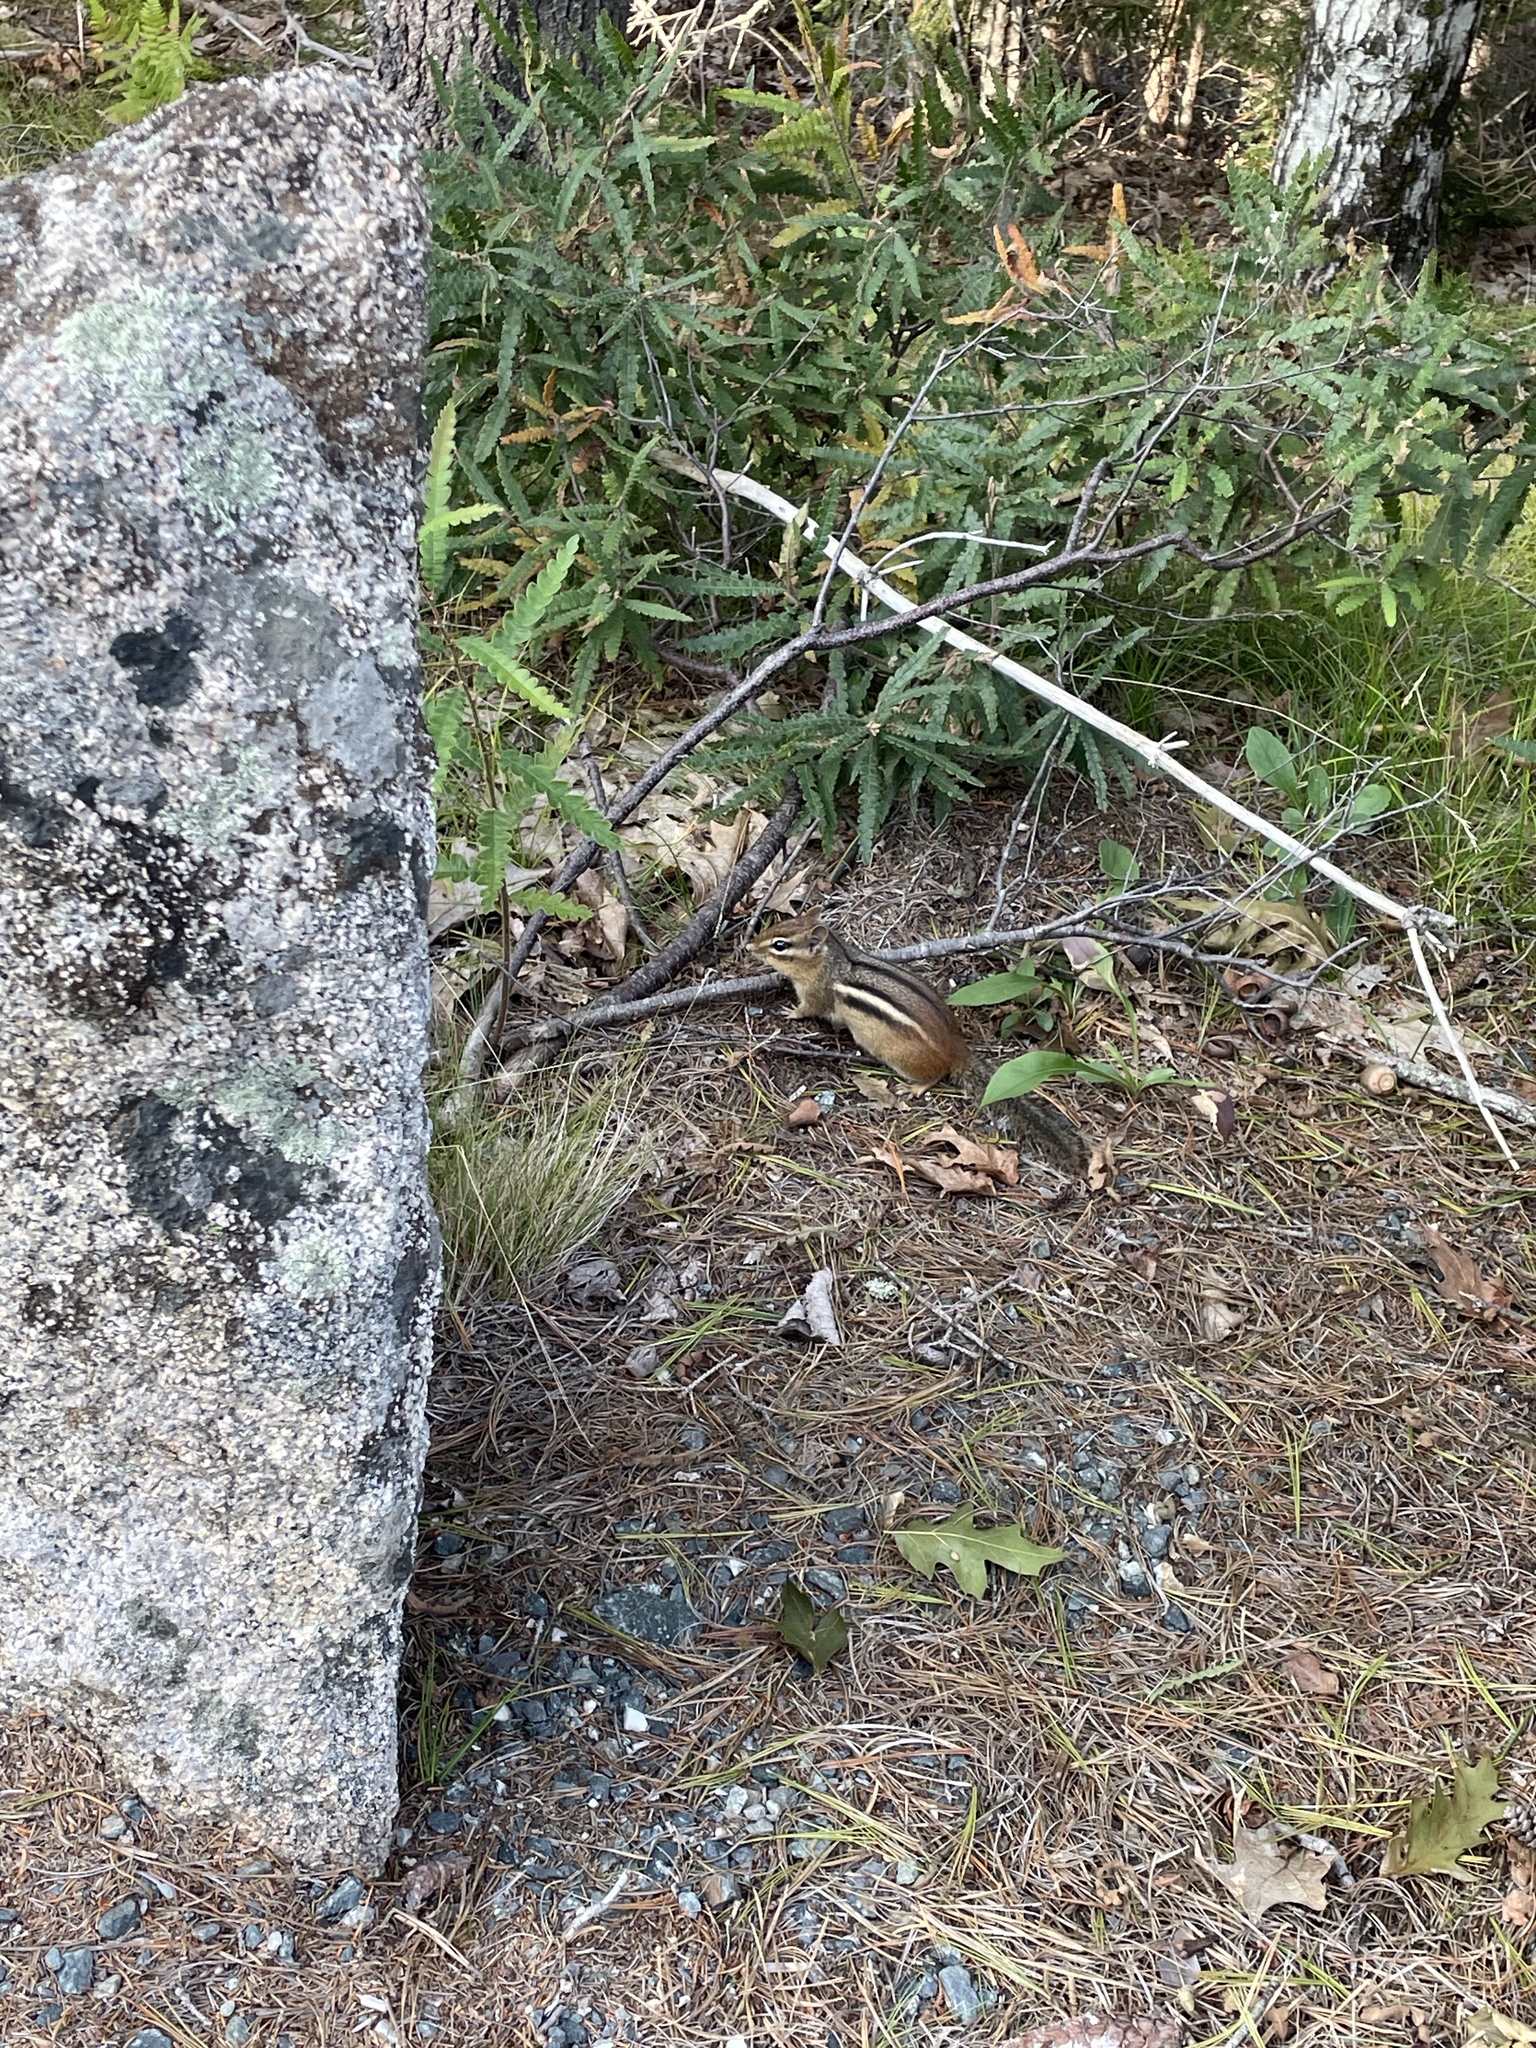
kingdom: Animalia
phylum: Chordata
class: Mammalia
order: Rodentia
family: Sciuridae
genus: Tamias
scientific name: Tamias striatus
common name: Eastern chipmunk
